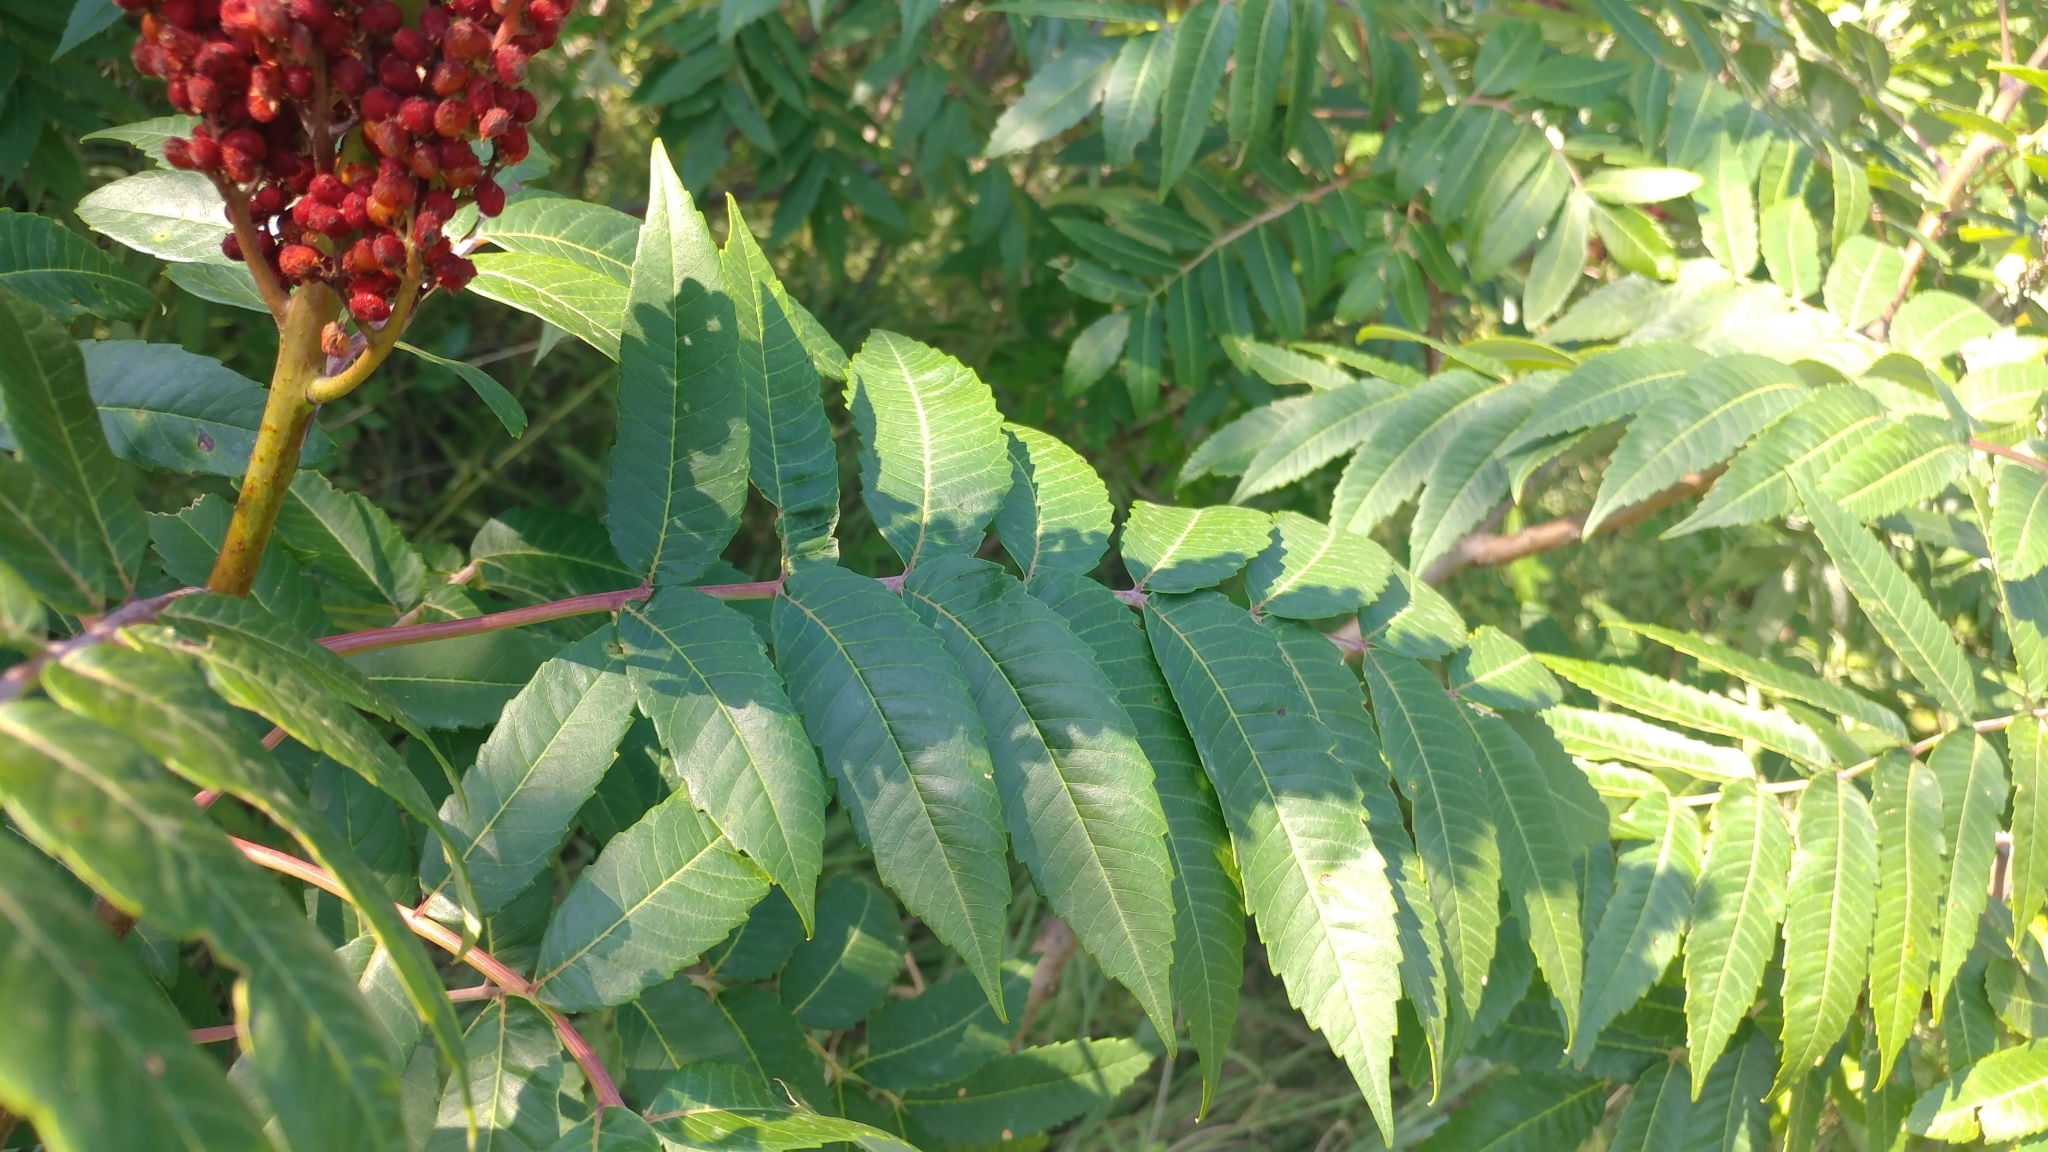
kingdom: Plantae
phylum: Tracheophyta
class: Magnoliopsida
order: Sapindales
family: Anacardiaceae
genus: Rhus
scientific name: Rhus glabra
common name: Scarlet sumac
